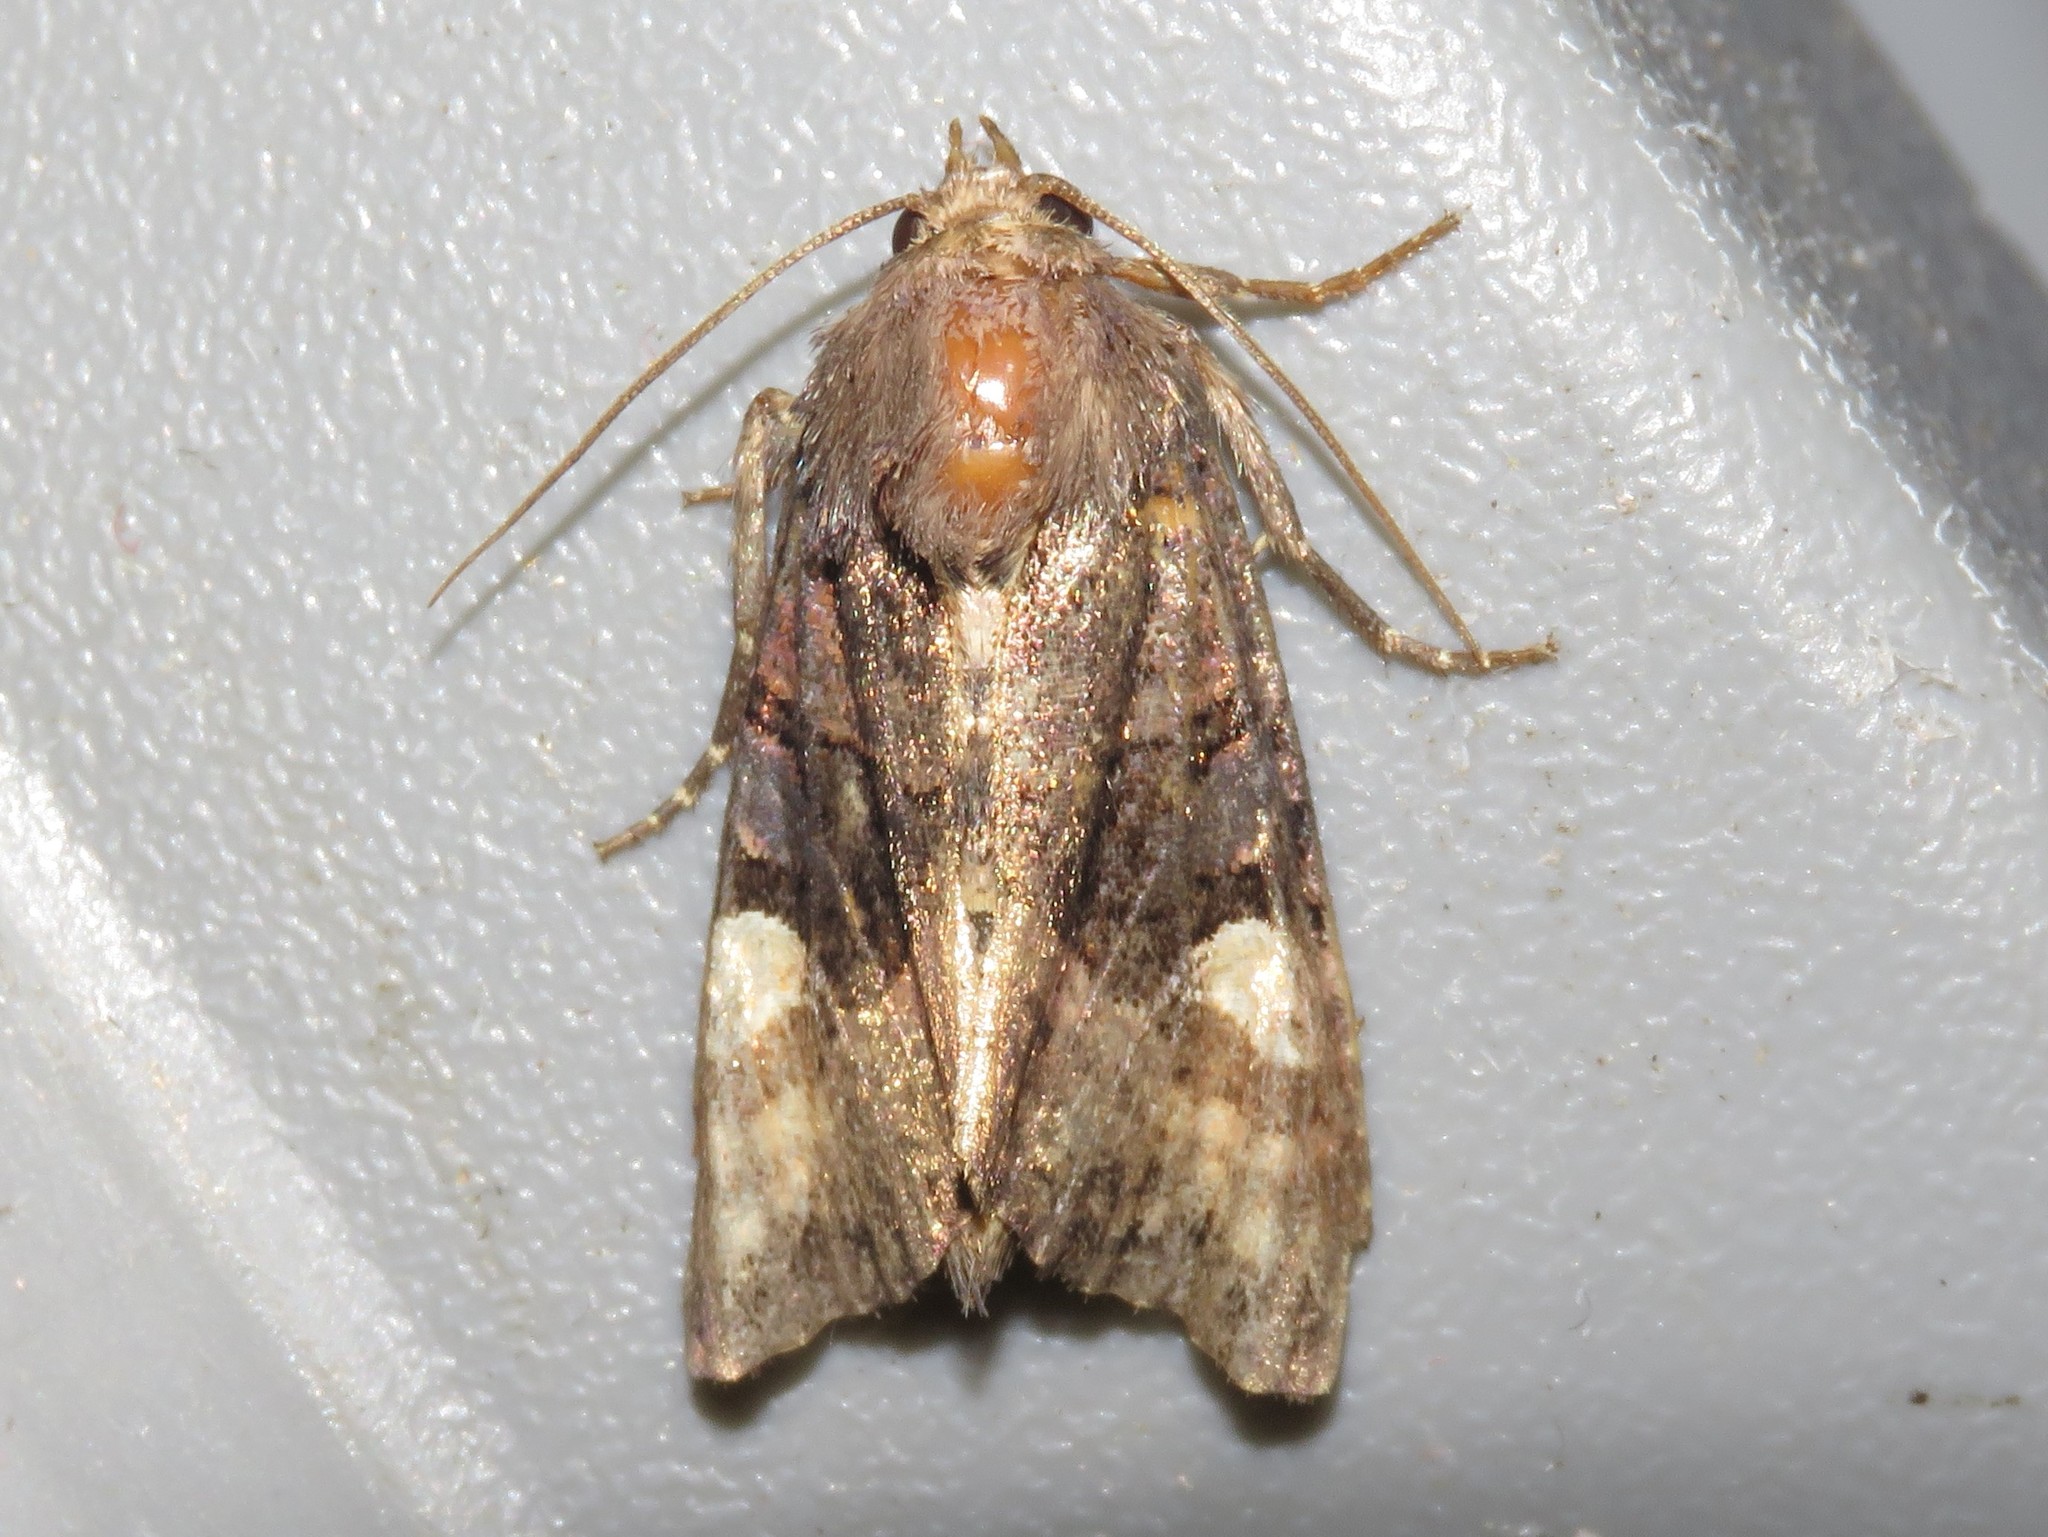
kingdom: Animalia
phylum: Arthropoda
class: Insecta
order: Lepidoptera
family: Noctuidae
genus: Euplexia
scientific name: Euplexia benesimilis
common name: American angle shades
